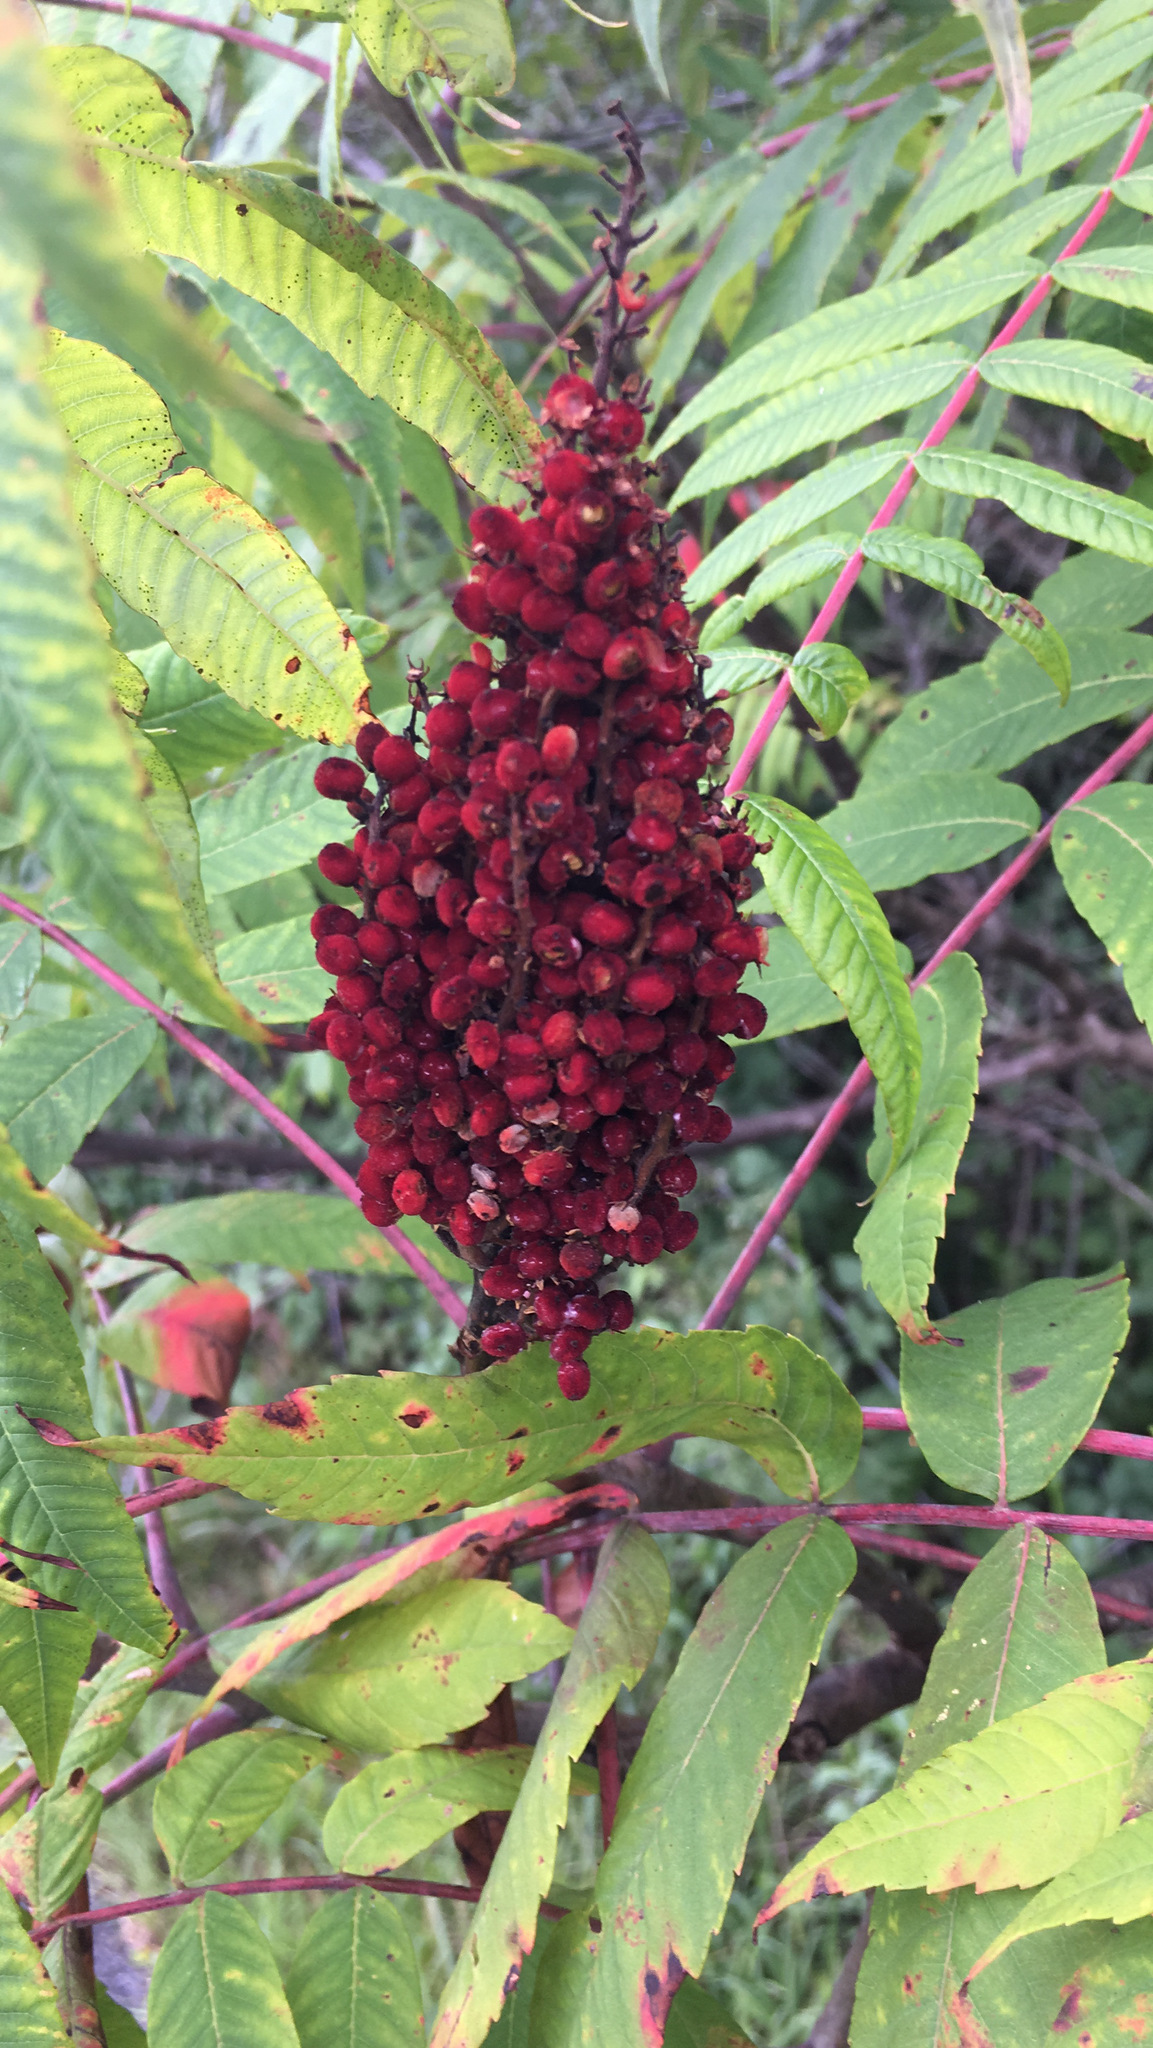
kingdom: Plantae
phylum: Tracheophyta
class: Magnoliopsida
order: Sapindales
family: Anacardiaceae
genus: Rhus
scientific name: Rhus glabra
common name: Scarlet sumac
